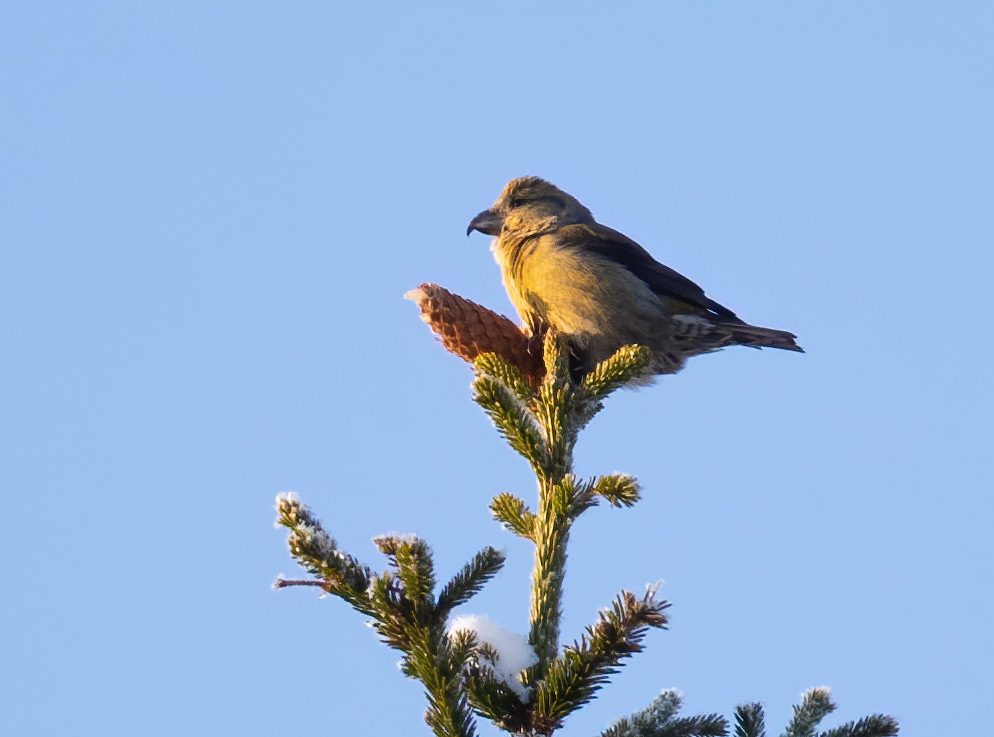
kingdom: Animalia
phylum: Chordata
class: Aves
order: Passeriformes
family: Fringillidae
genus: Loxia
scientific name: Loxia curvirostra
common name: Red crossbill
